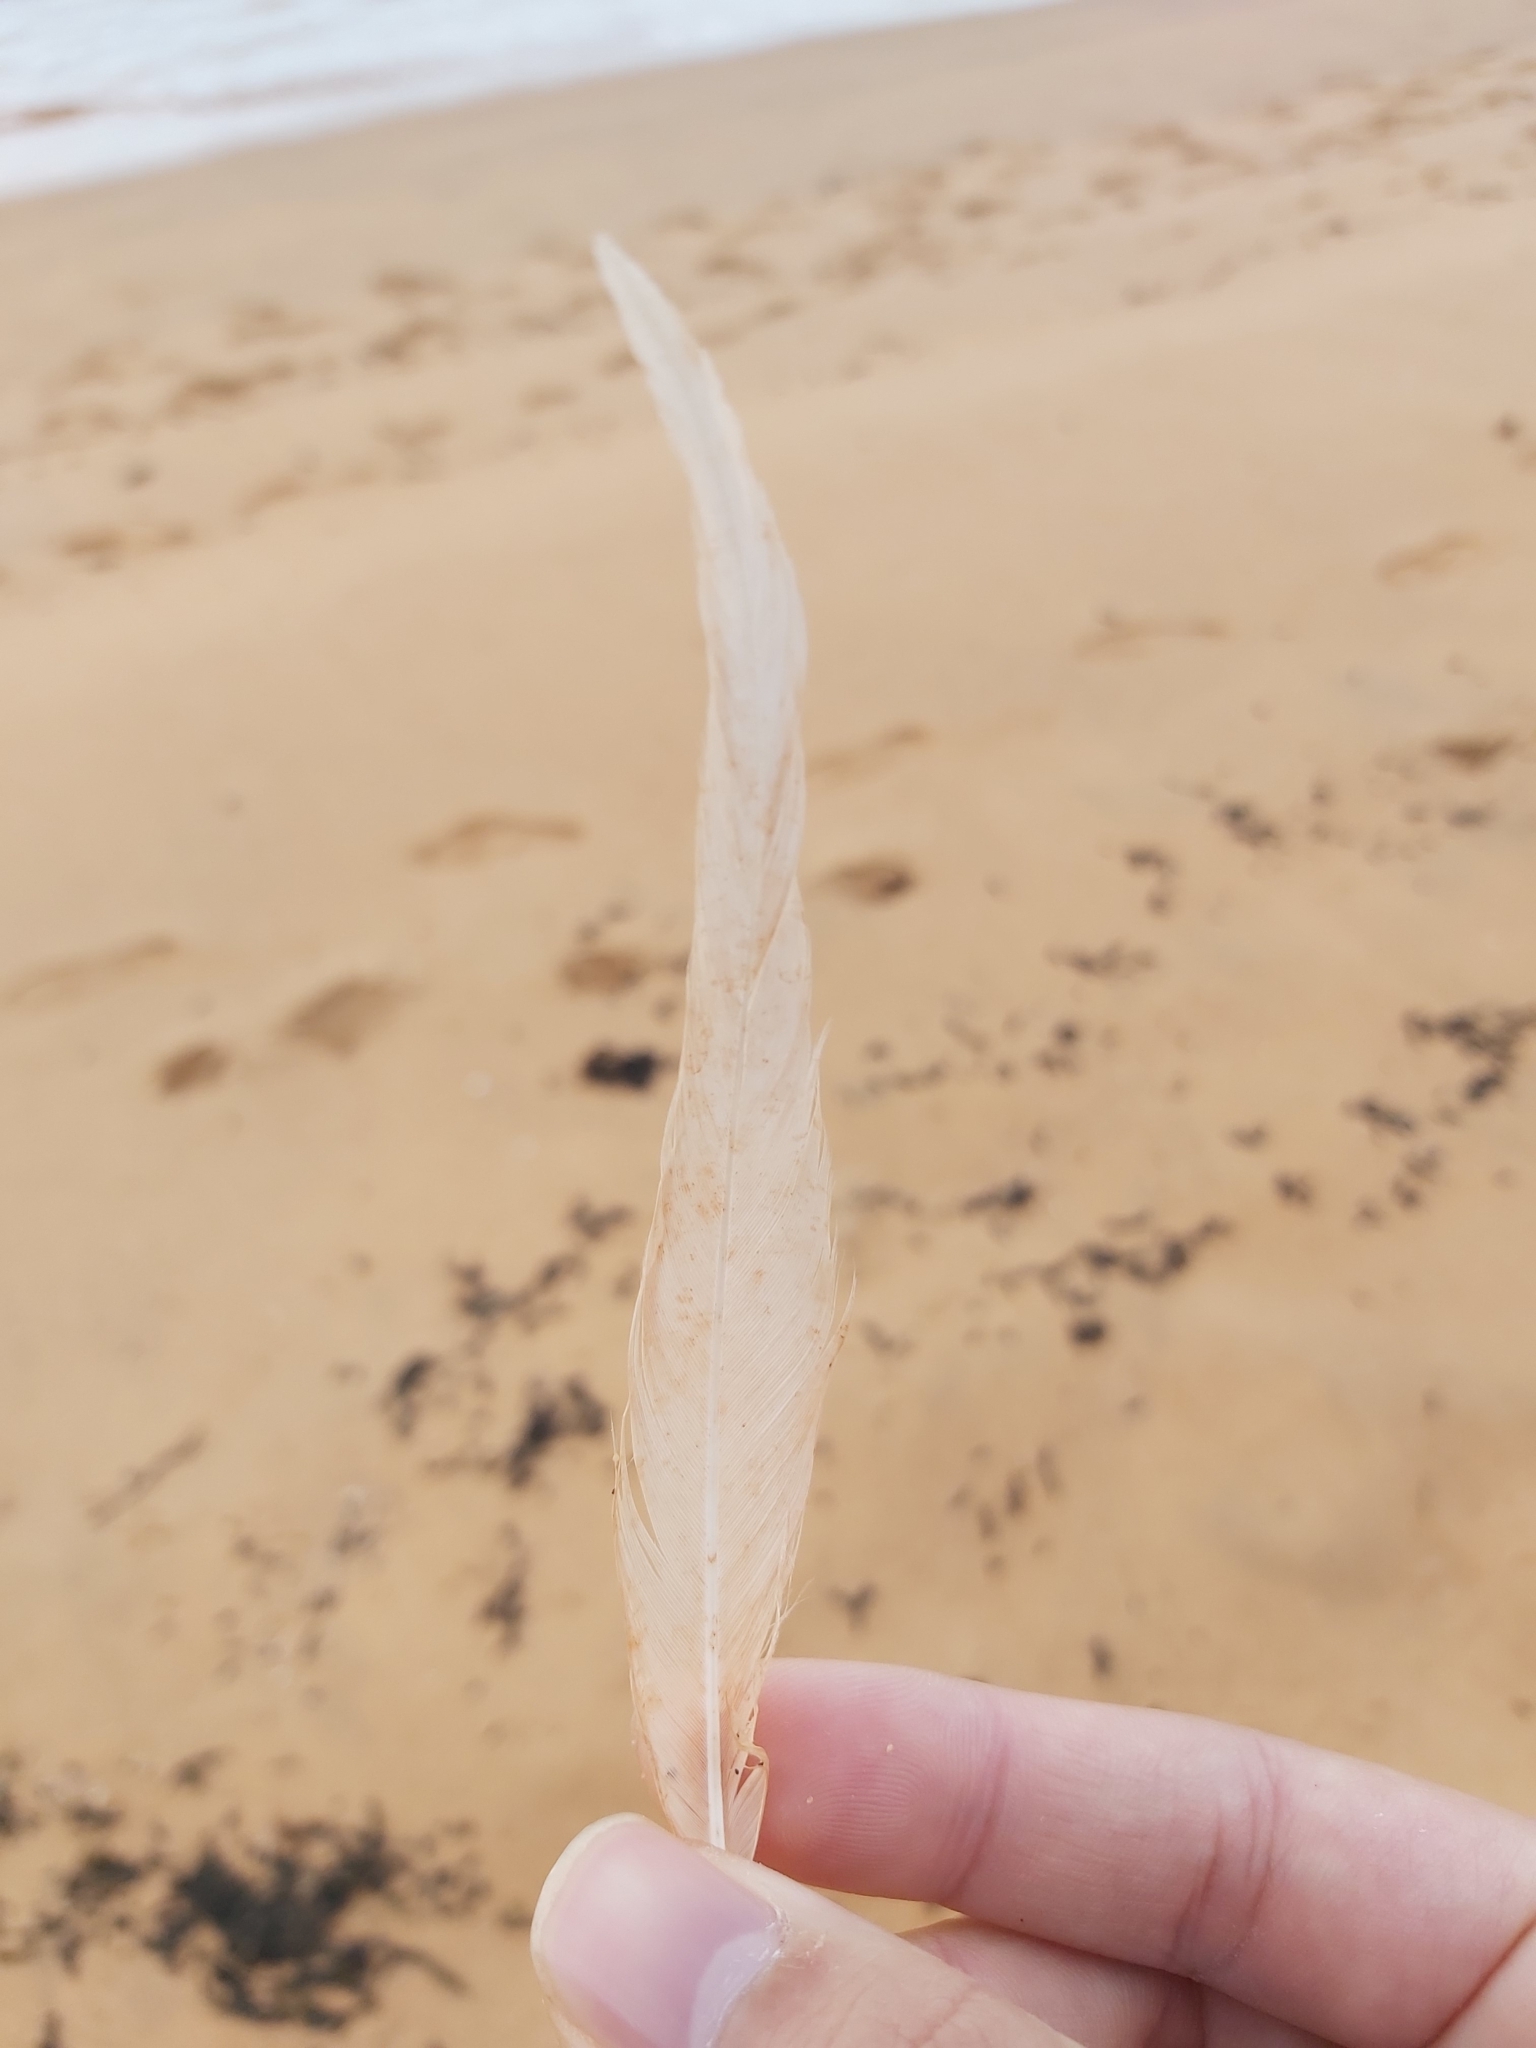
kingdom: Animalia
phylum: Chordata
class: Aves
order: Pelecaniformes
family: Pelecanidae
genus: Pelecanus
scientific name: Pelecanus conspicillatus
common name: Australian pelican
